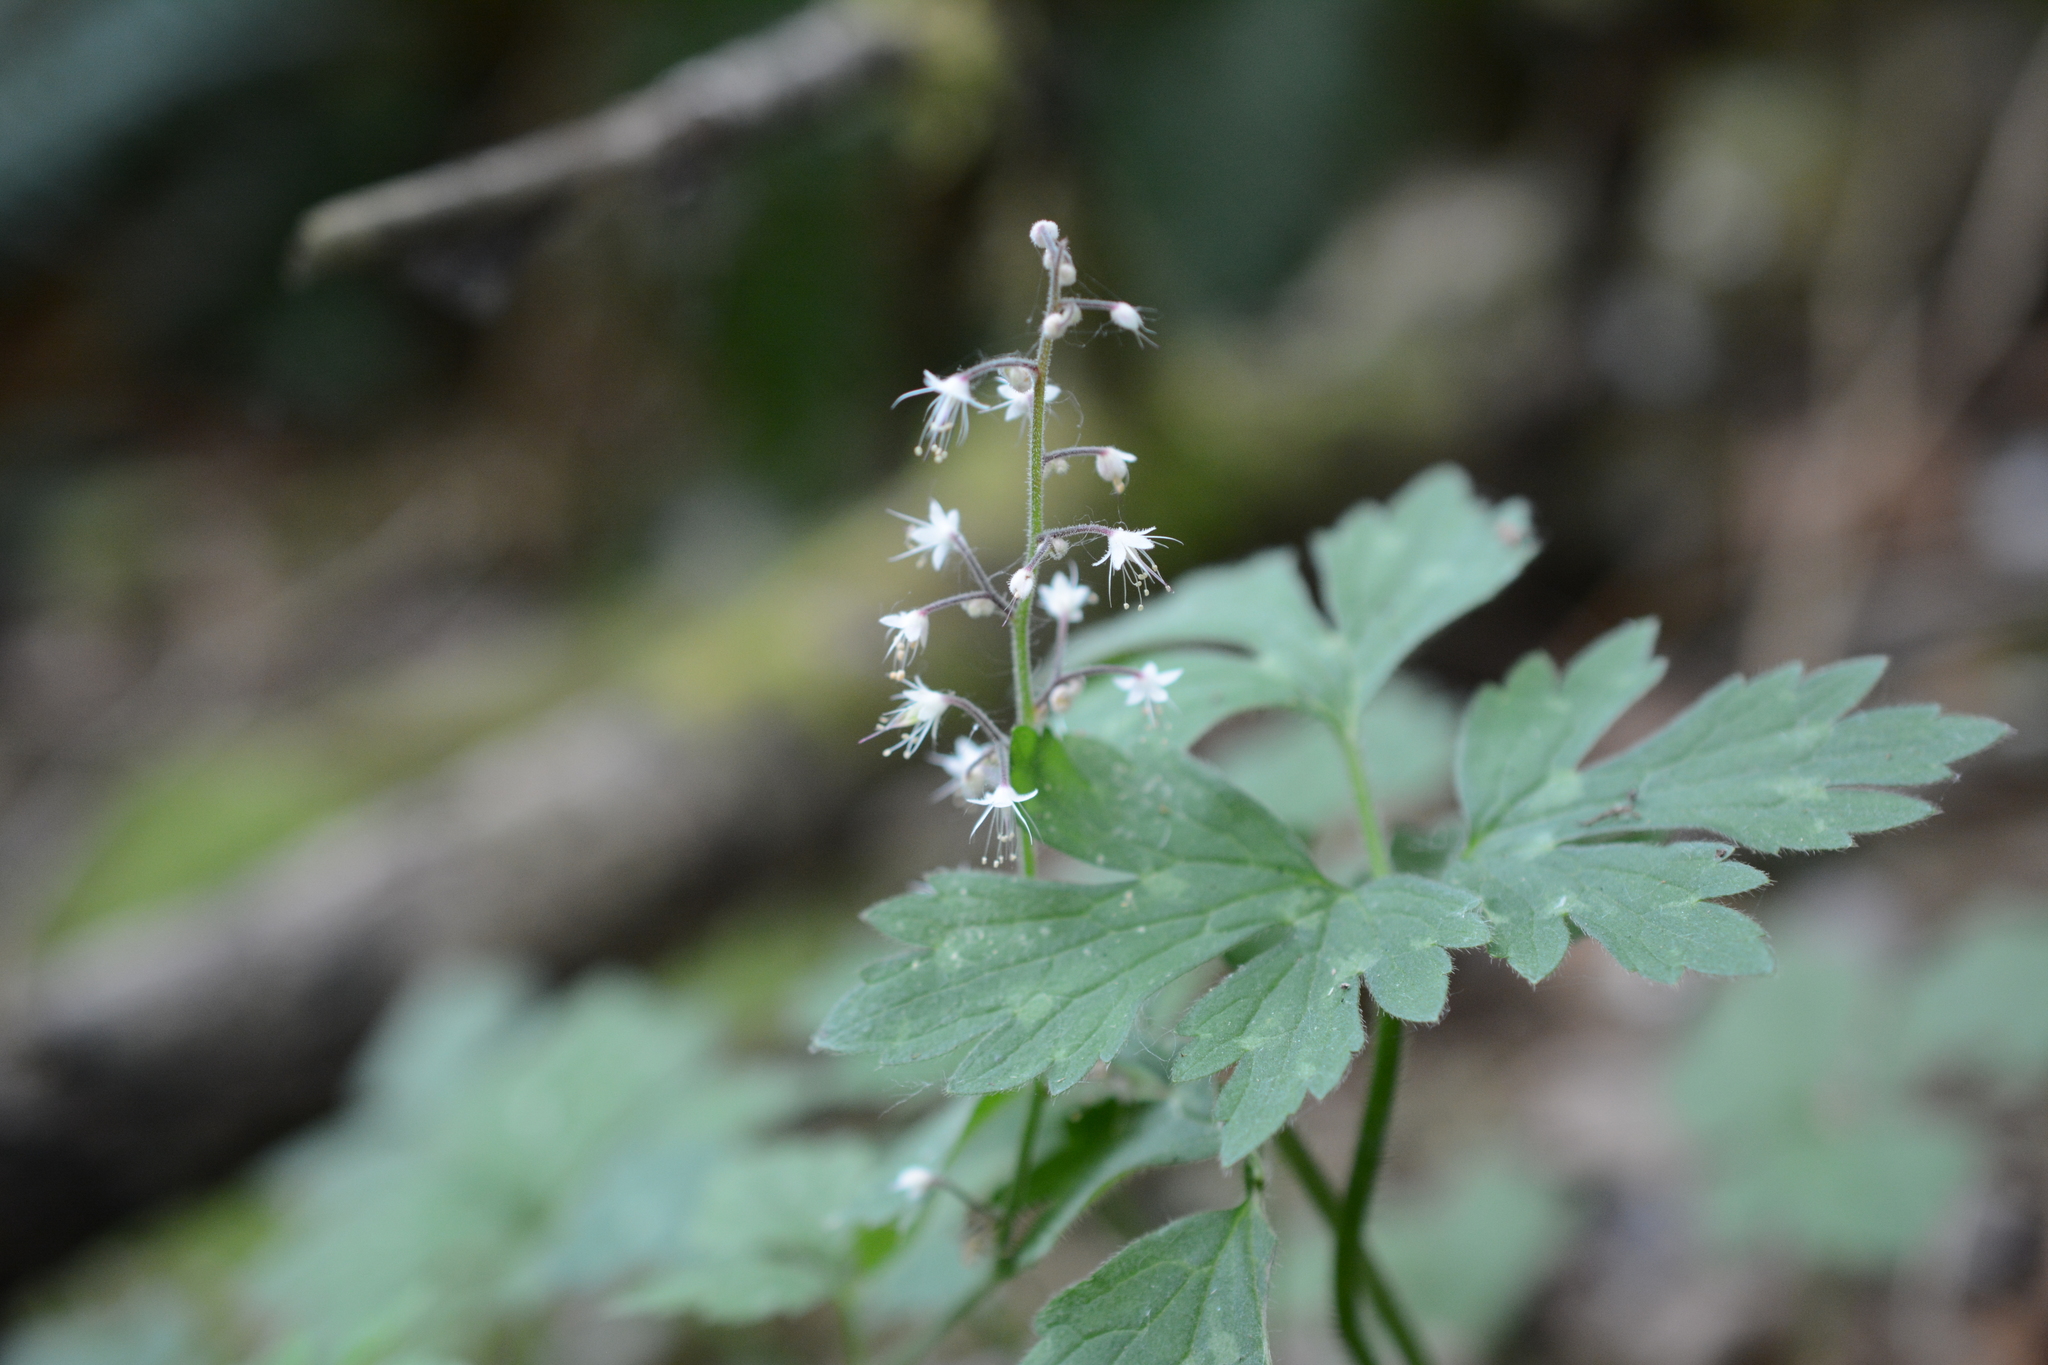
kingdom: Plantae
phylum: Tracheophyta
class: Magnoliopsida
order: Saxifragales
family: Saxifragaceae
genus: Tiarella
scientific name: Tiarella trifoliata
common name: Sugar-scoop
